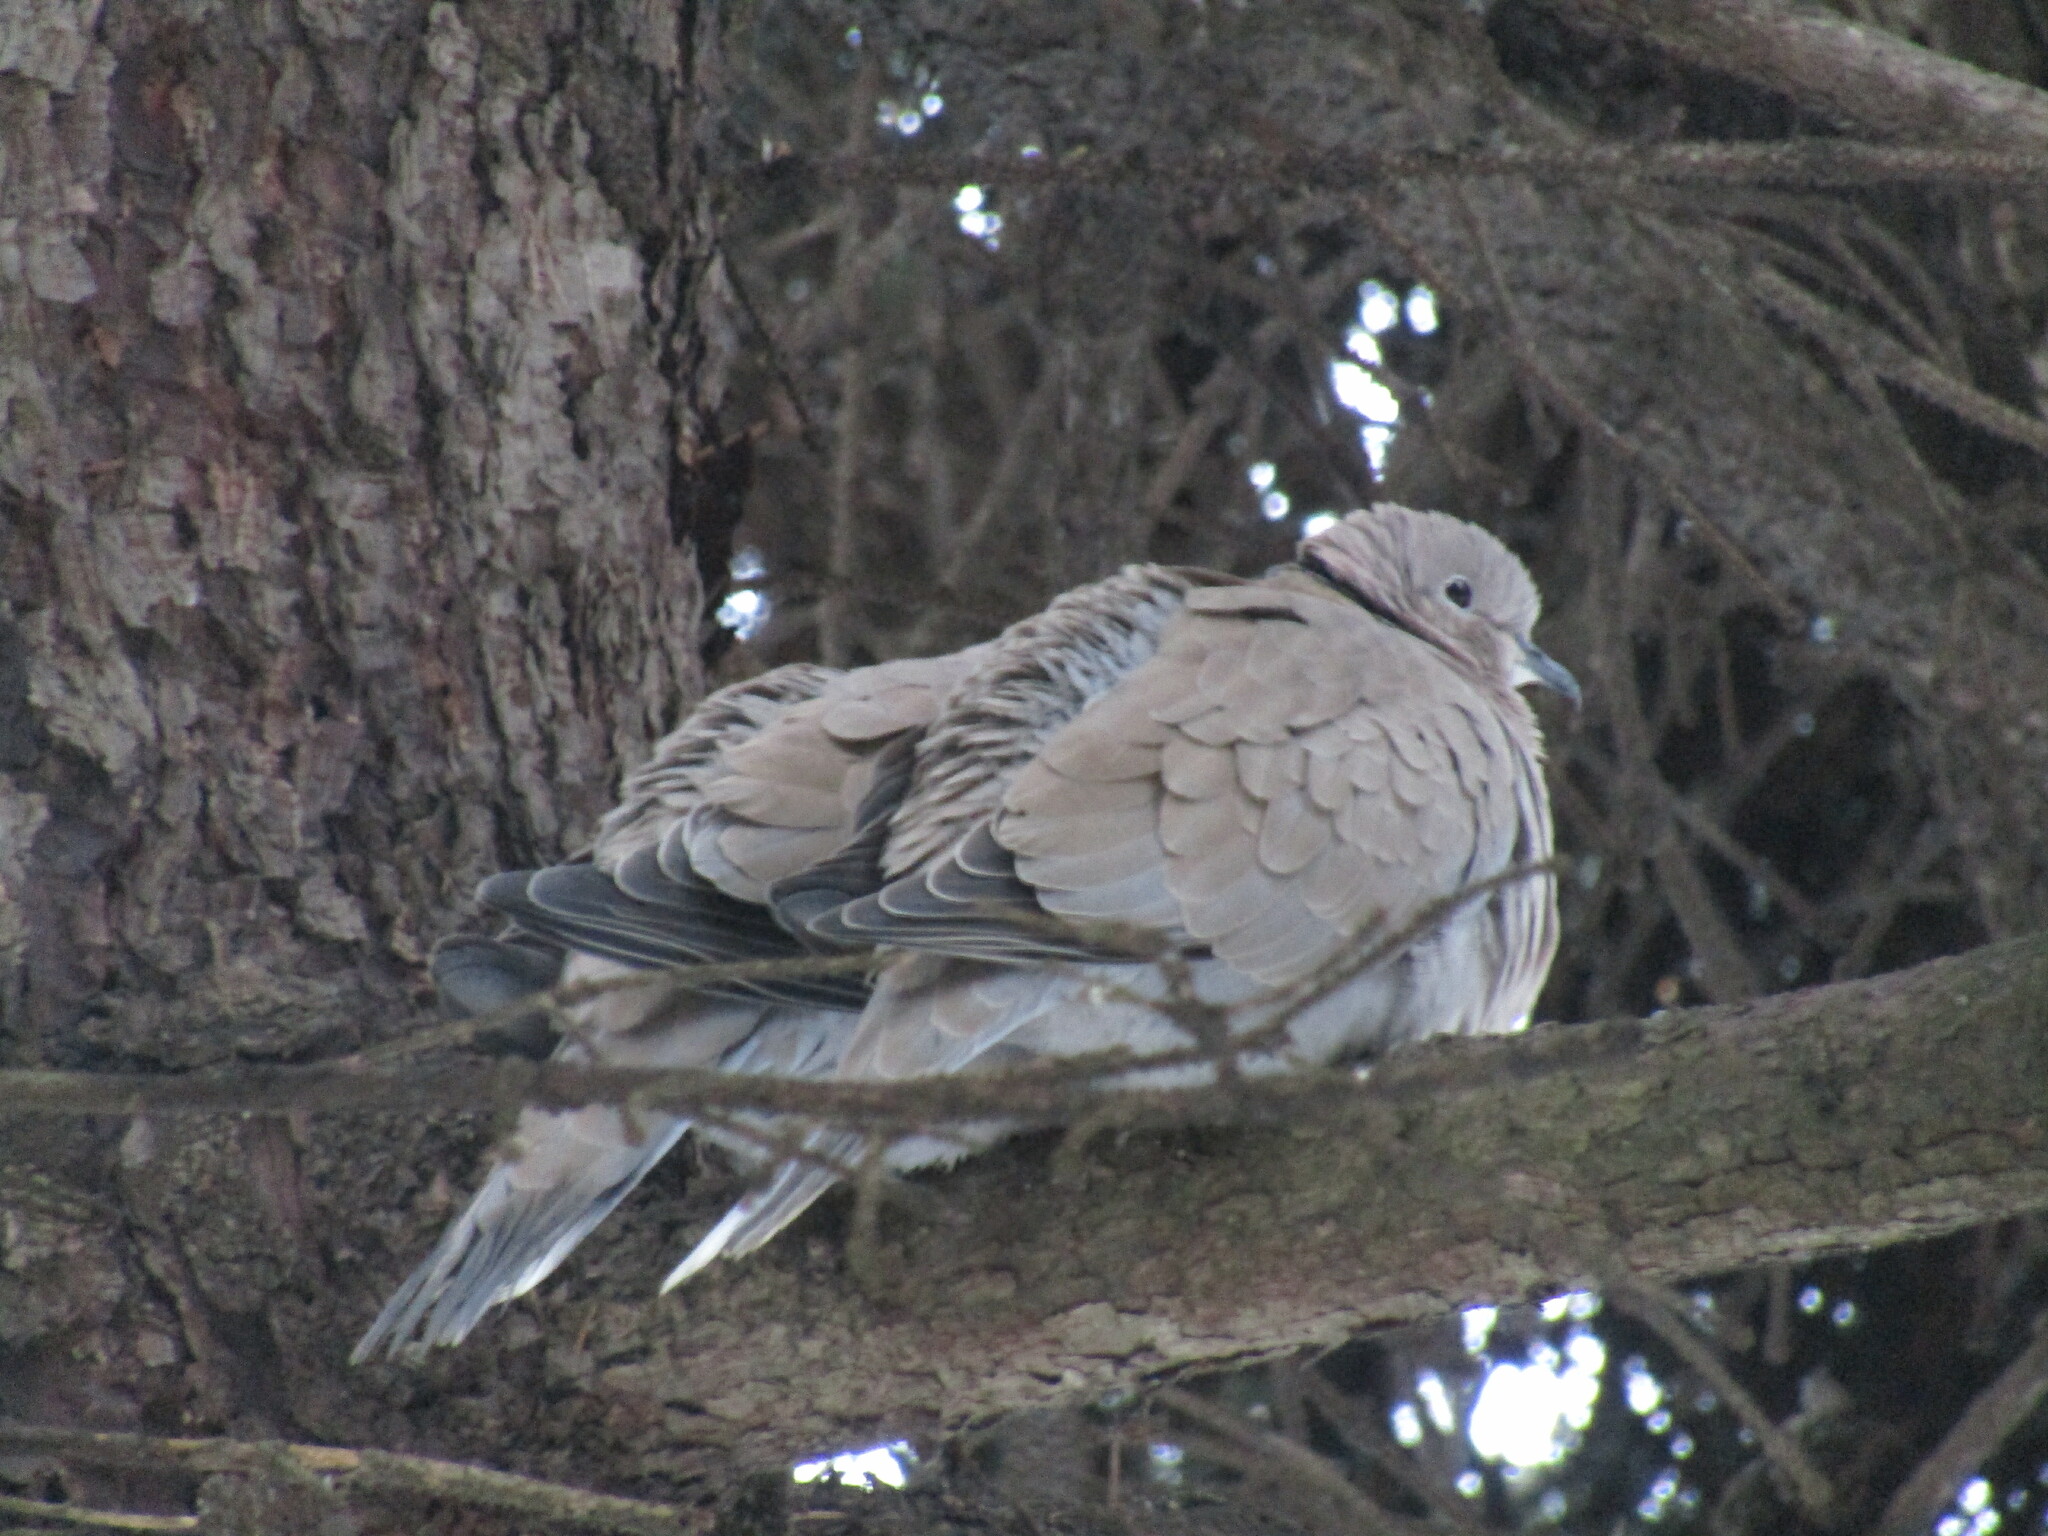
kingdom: Animalia
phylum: Chordata
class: Aves
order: Columbiformes
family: Columbidae
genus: Streptopelia
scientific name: Streptopelia decaocto
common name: Eurasian collared dove
